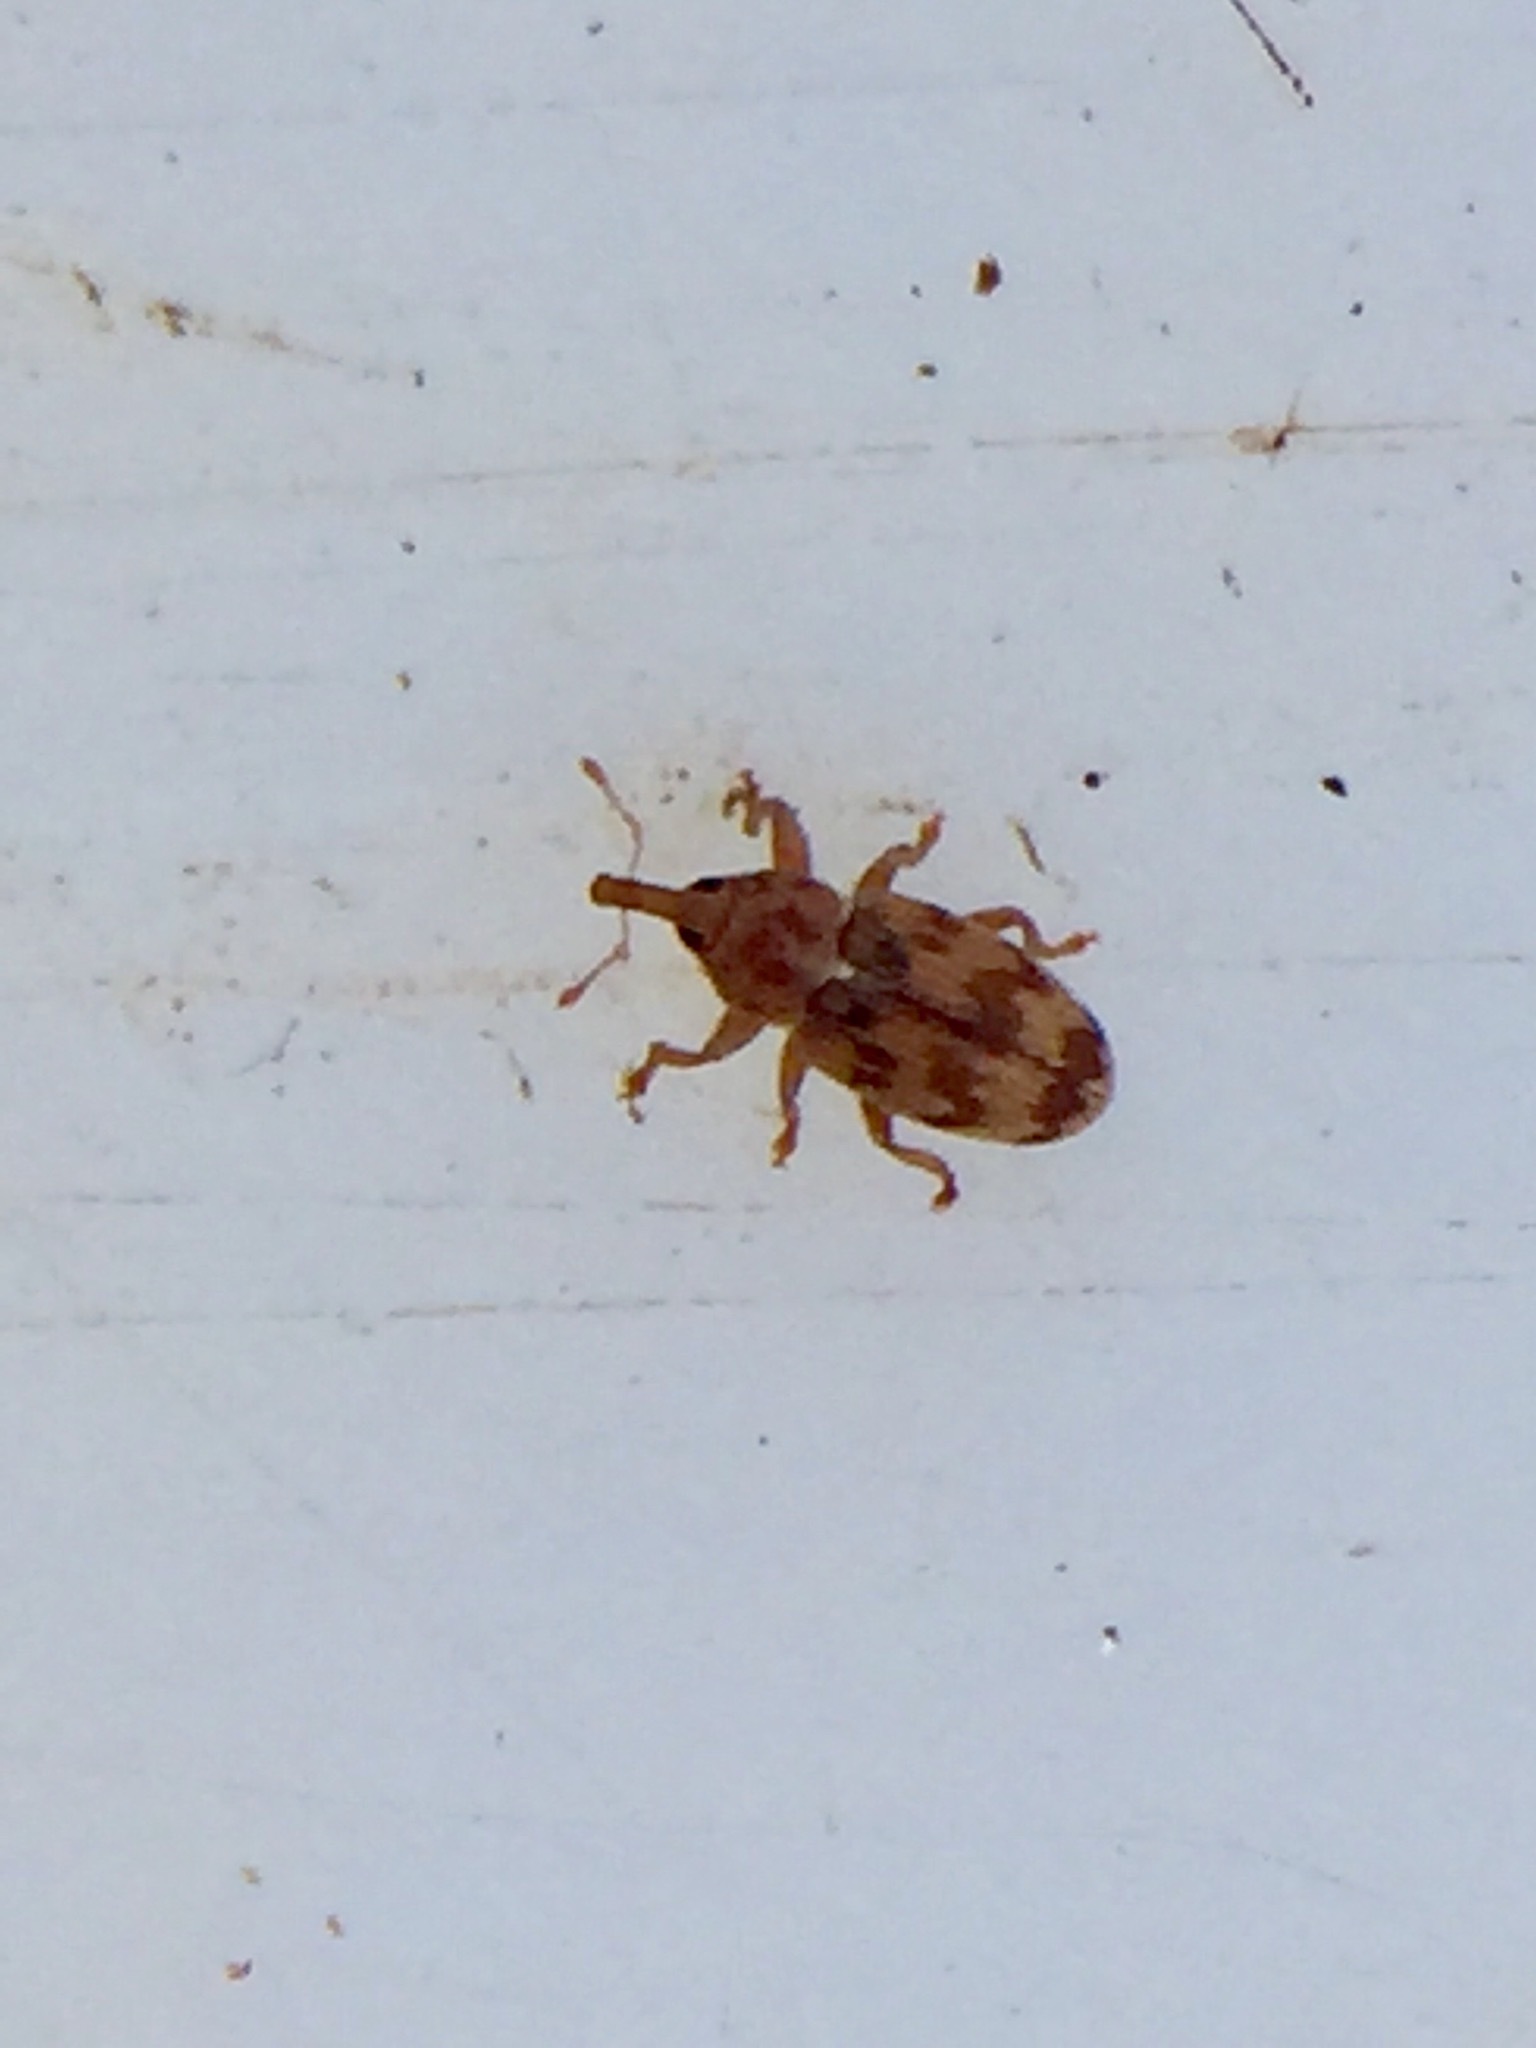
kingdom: Animalia
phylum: Arthropoda
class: Insecta
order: Coleoptera
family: Curculionidae
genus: Epamoebus
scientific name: Epamoebus ziczac
